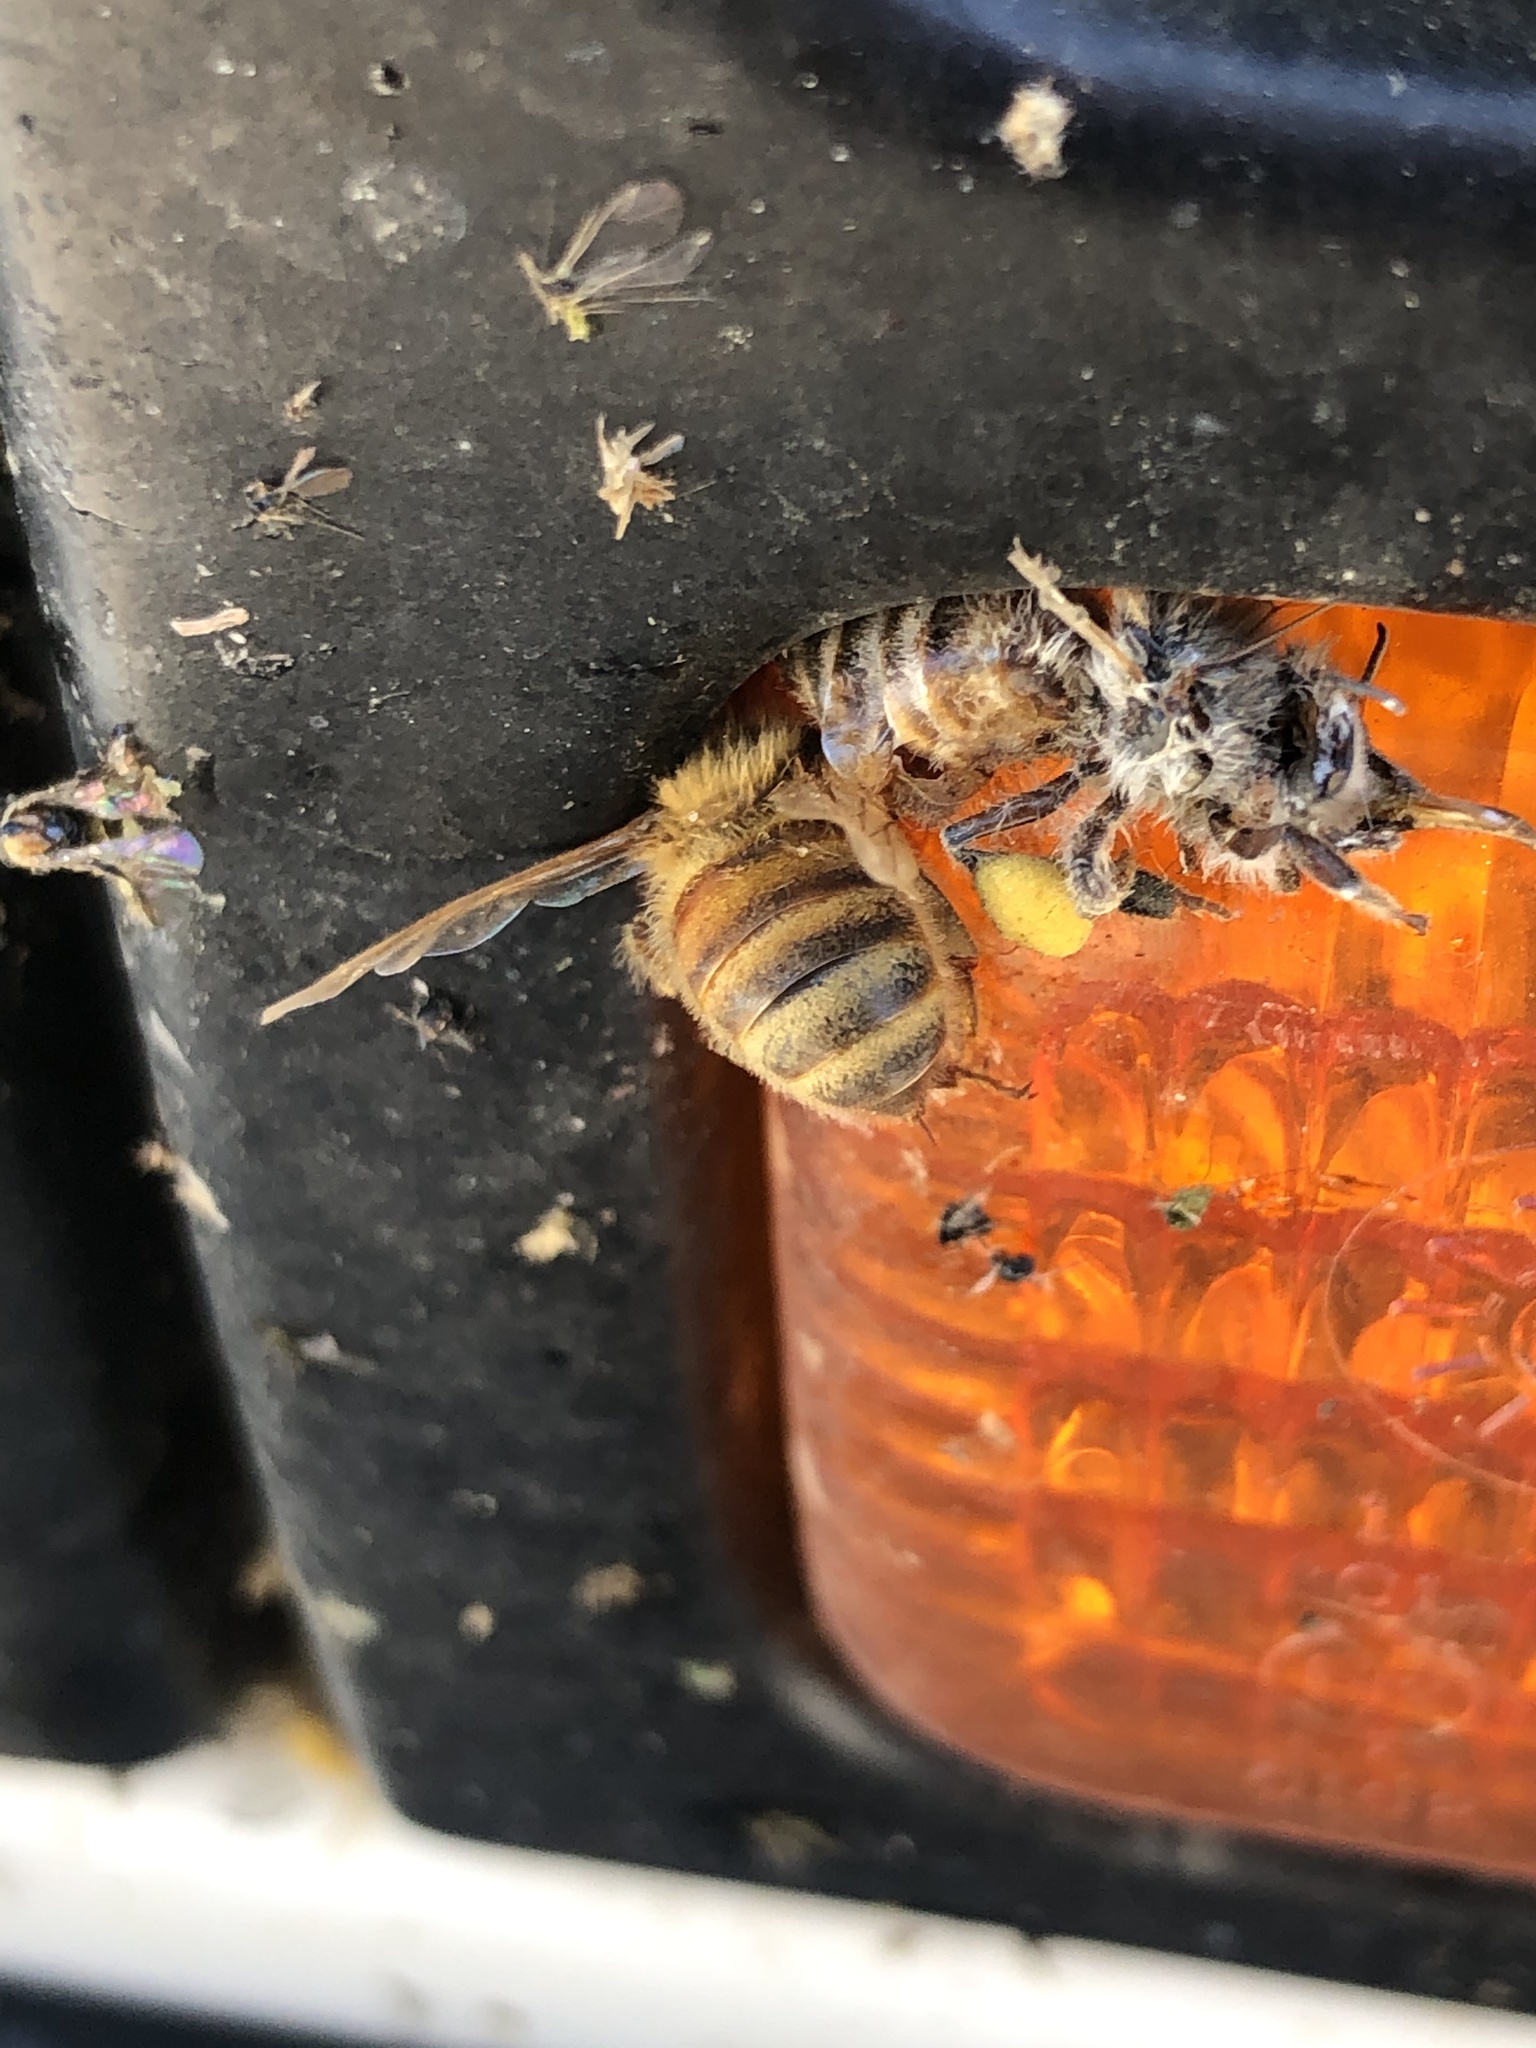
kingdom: Animalia
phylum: Arthropoda
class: Insecta
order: Hymenoptera
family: Apidae
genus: Apis
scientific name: Apis mellifera
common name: Honey bee
